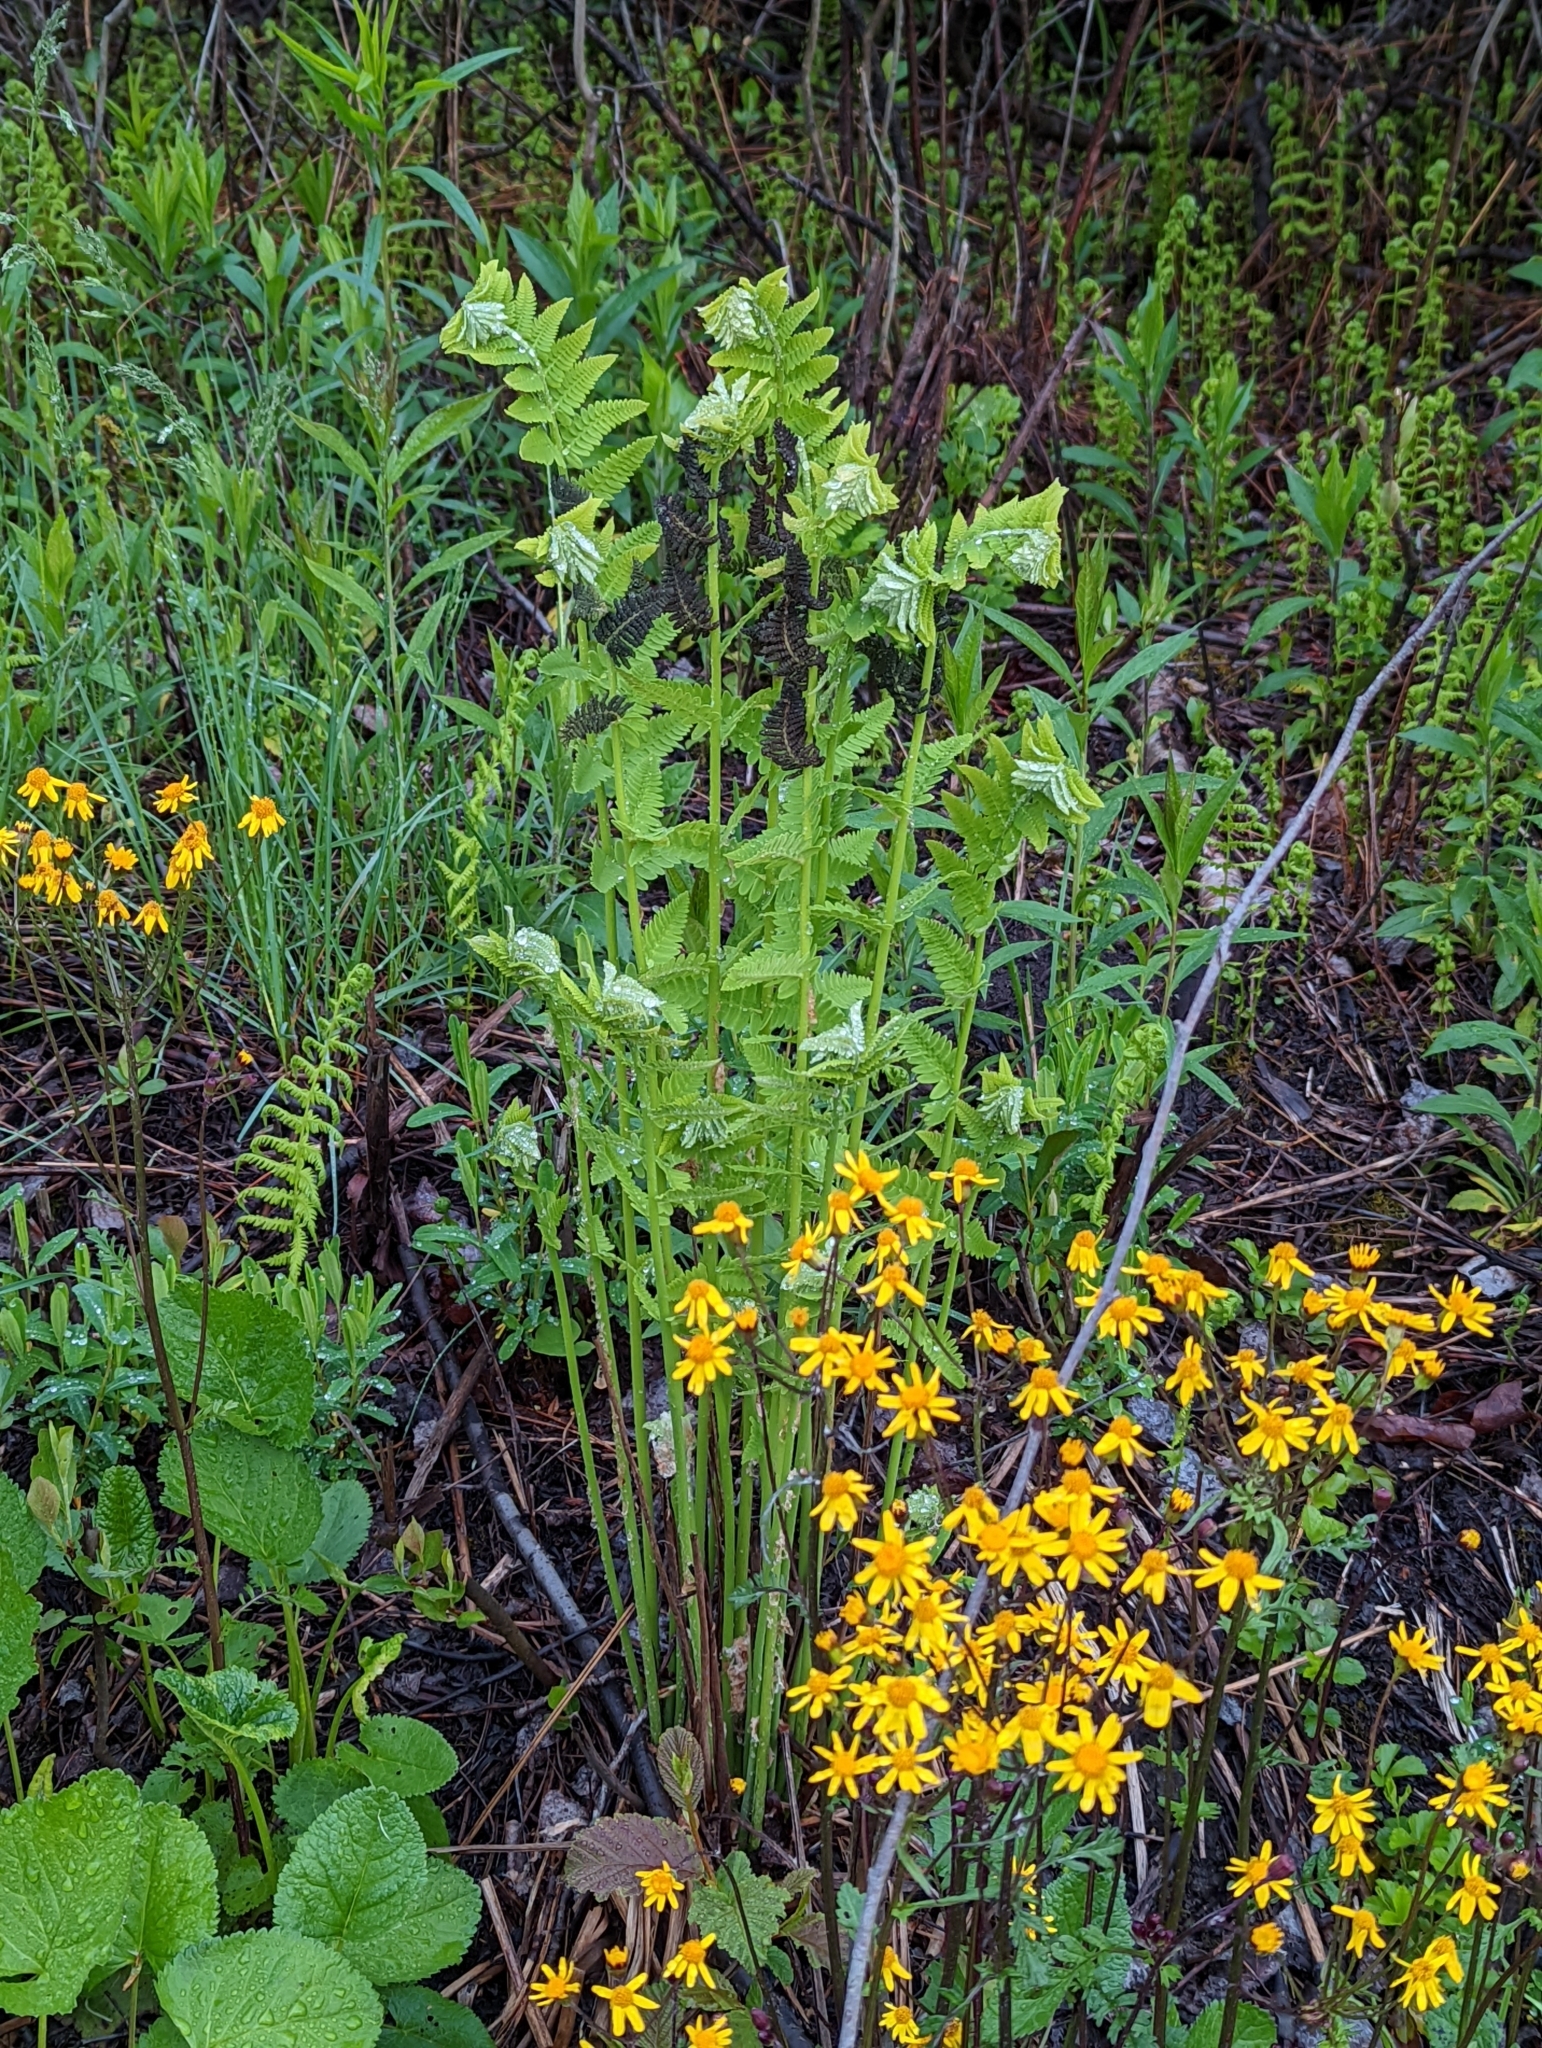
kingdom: Plantae
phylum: Tracheophyta
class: Polypodiopsida
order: Osmundales
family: Osmundaceae
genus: Claytosmunda
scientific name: Claytosmunda claytoniana
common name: Clayton's fern
